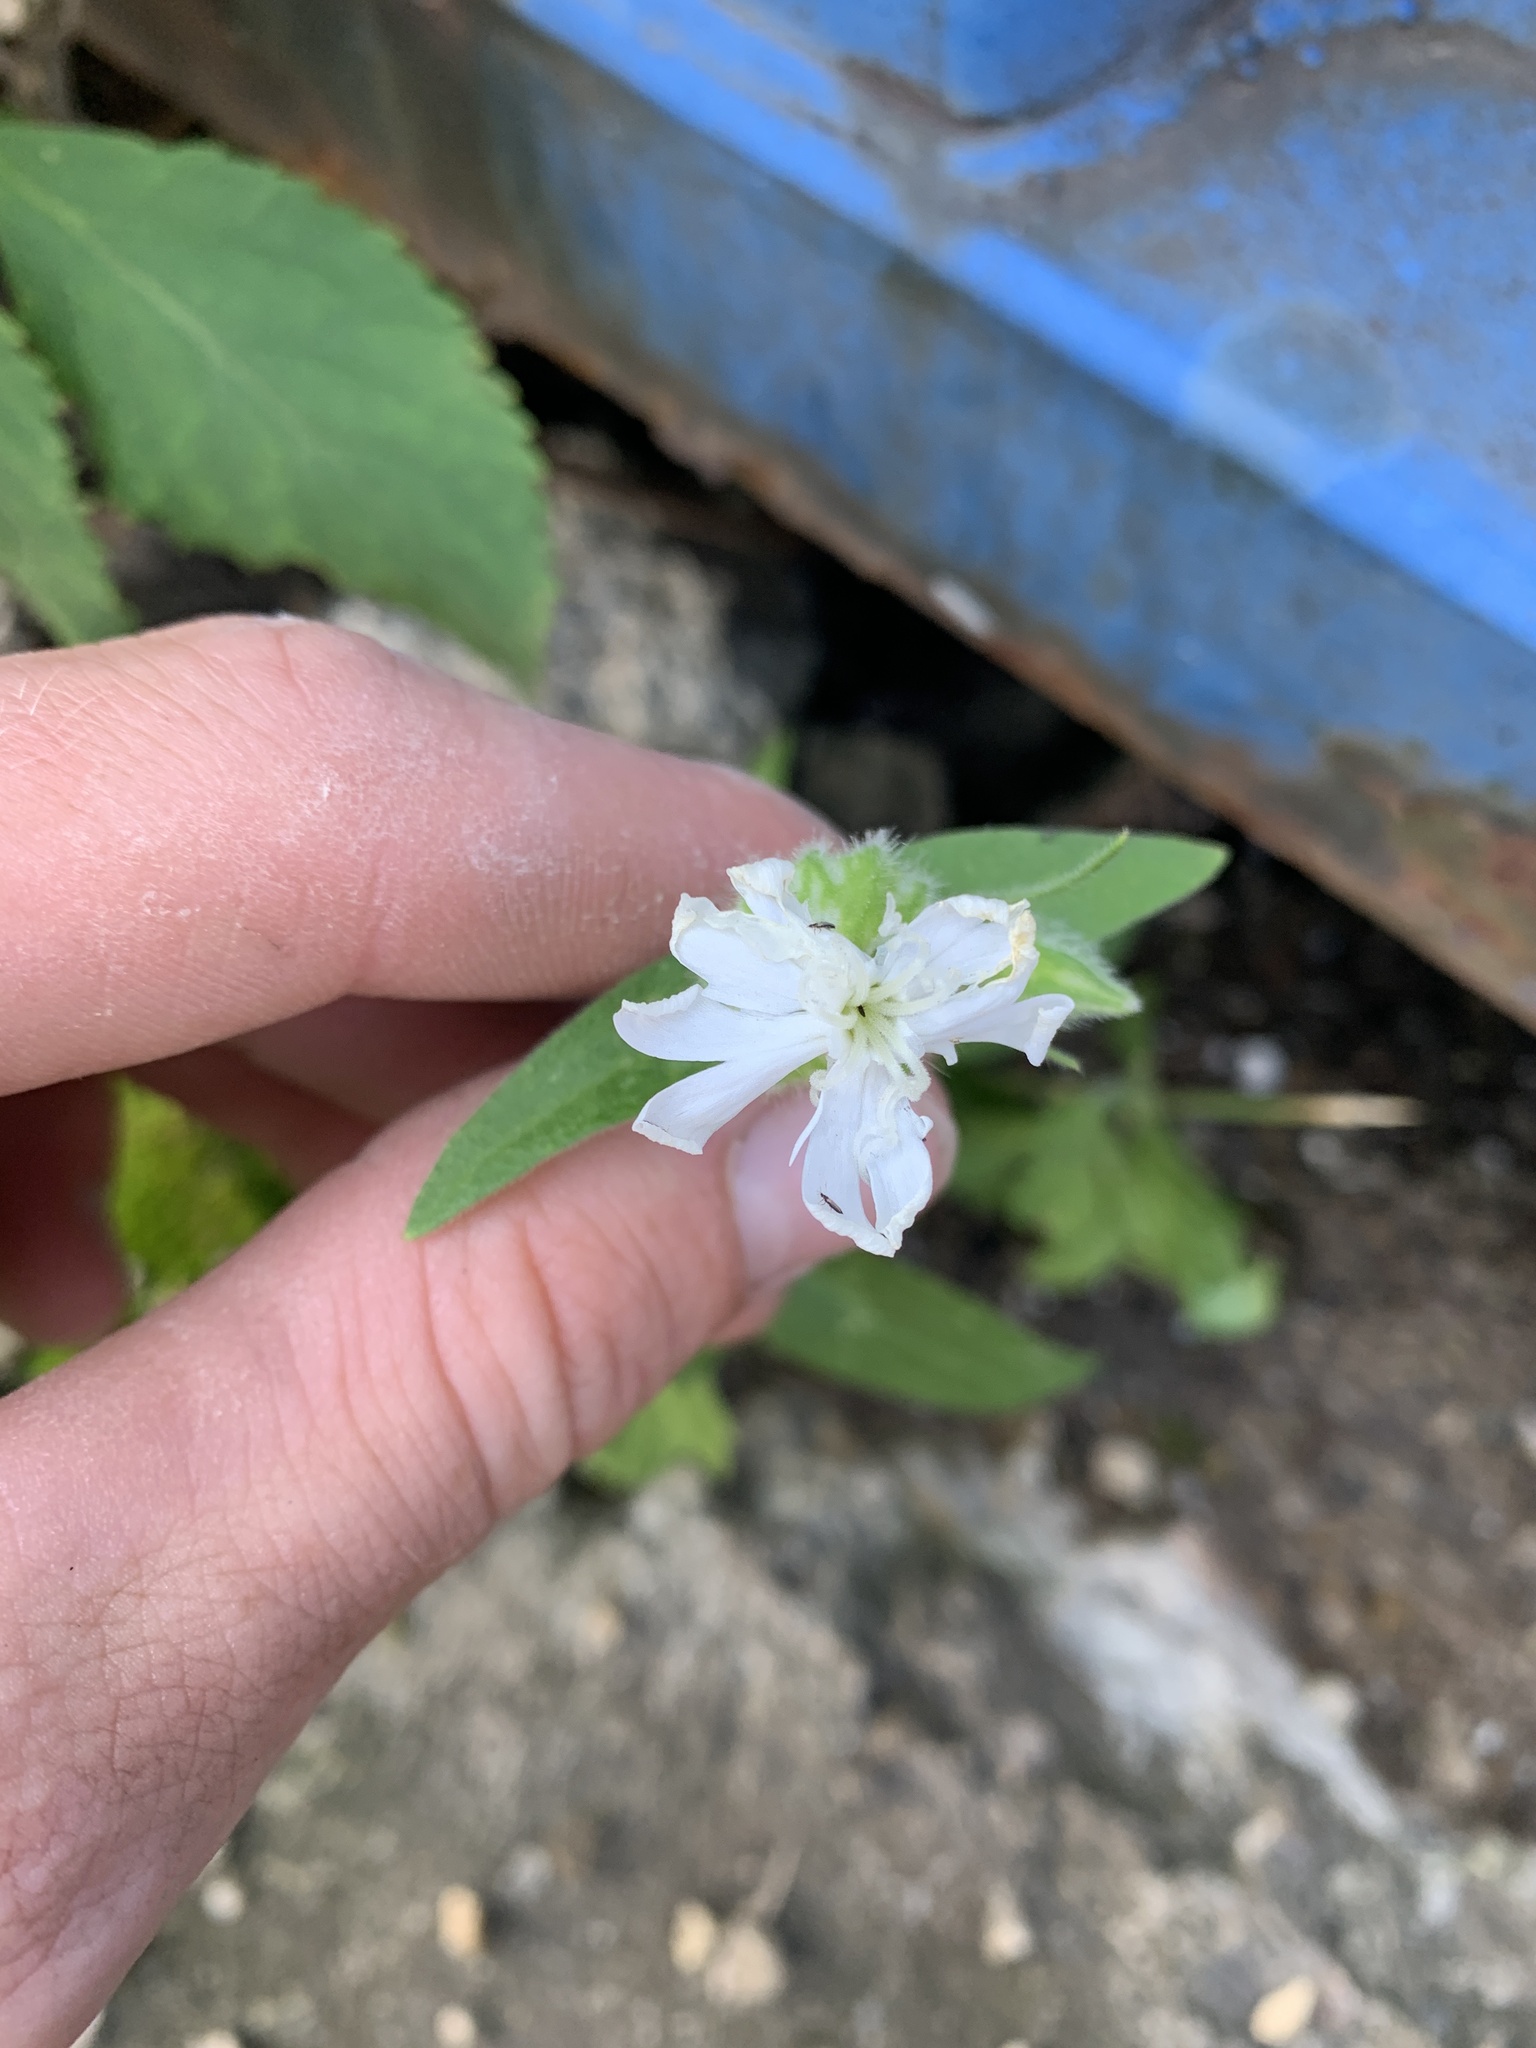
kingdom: Plantae
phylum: Tracheophyta
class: Magnoliopsida
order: Caryophyllales
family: Caryophyllaceae
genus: Silene
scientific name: Silene latifolia
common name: White campion
